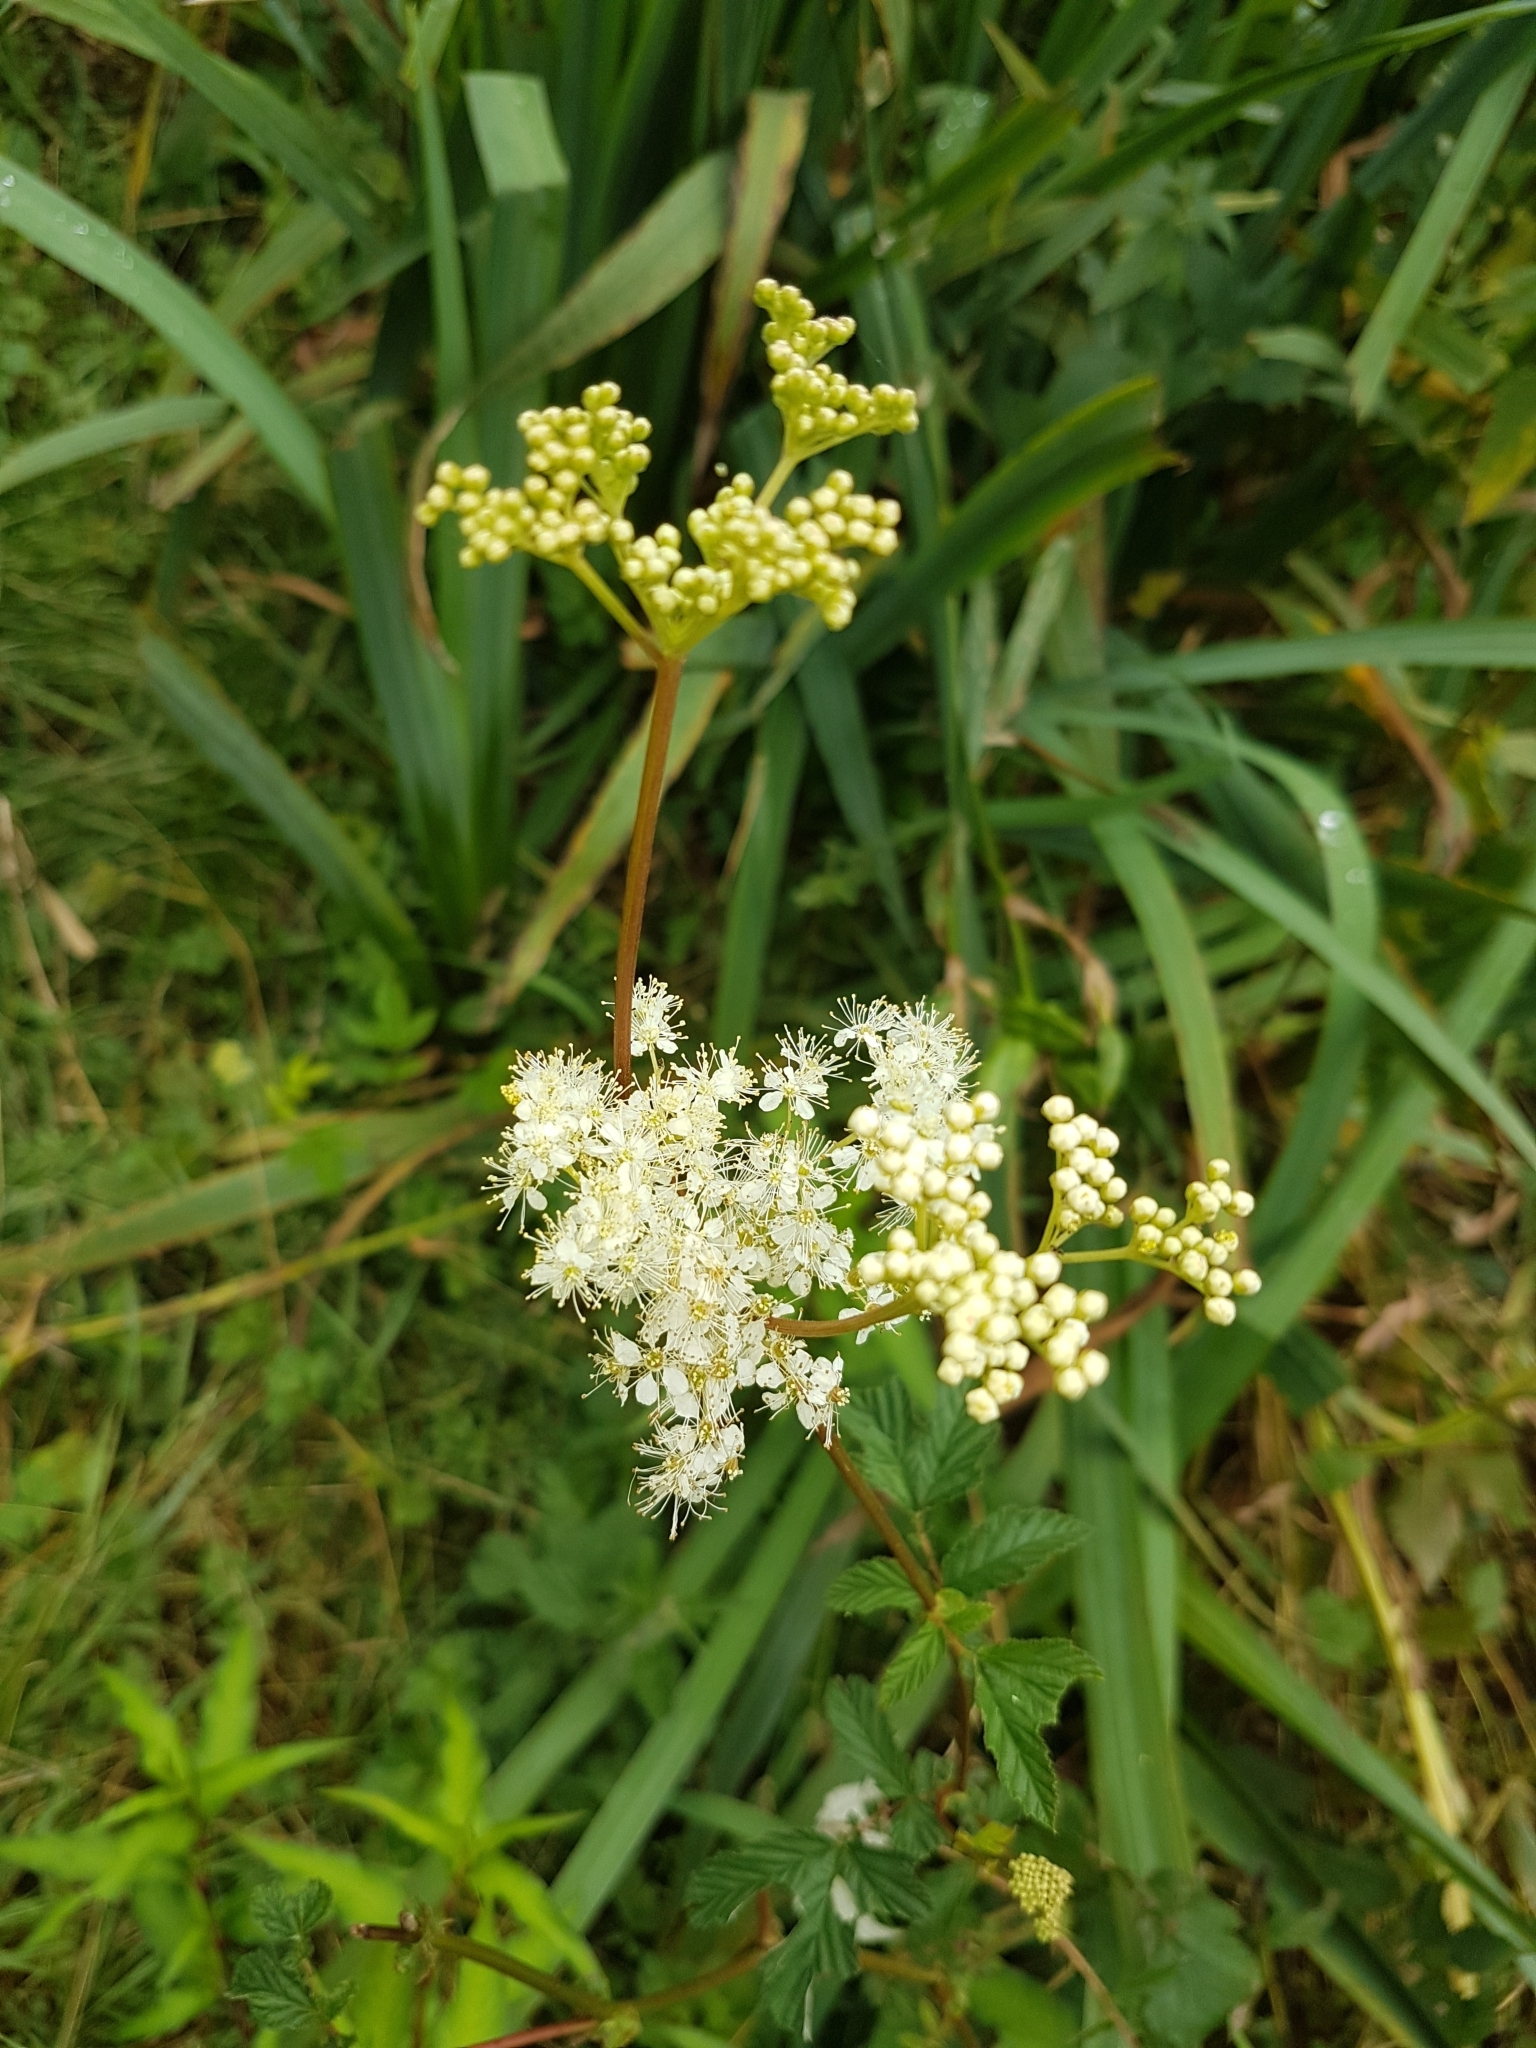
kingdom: Plantae
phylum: Tracheophyta
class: Magnoliopsida
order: Rosales
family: Rosaceae
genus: Filipendula
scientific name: Filipendula ulmaria
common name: Meadowsweet
